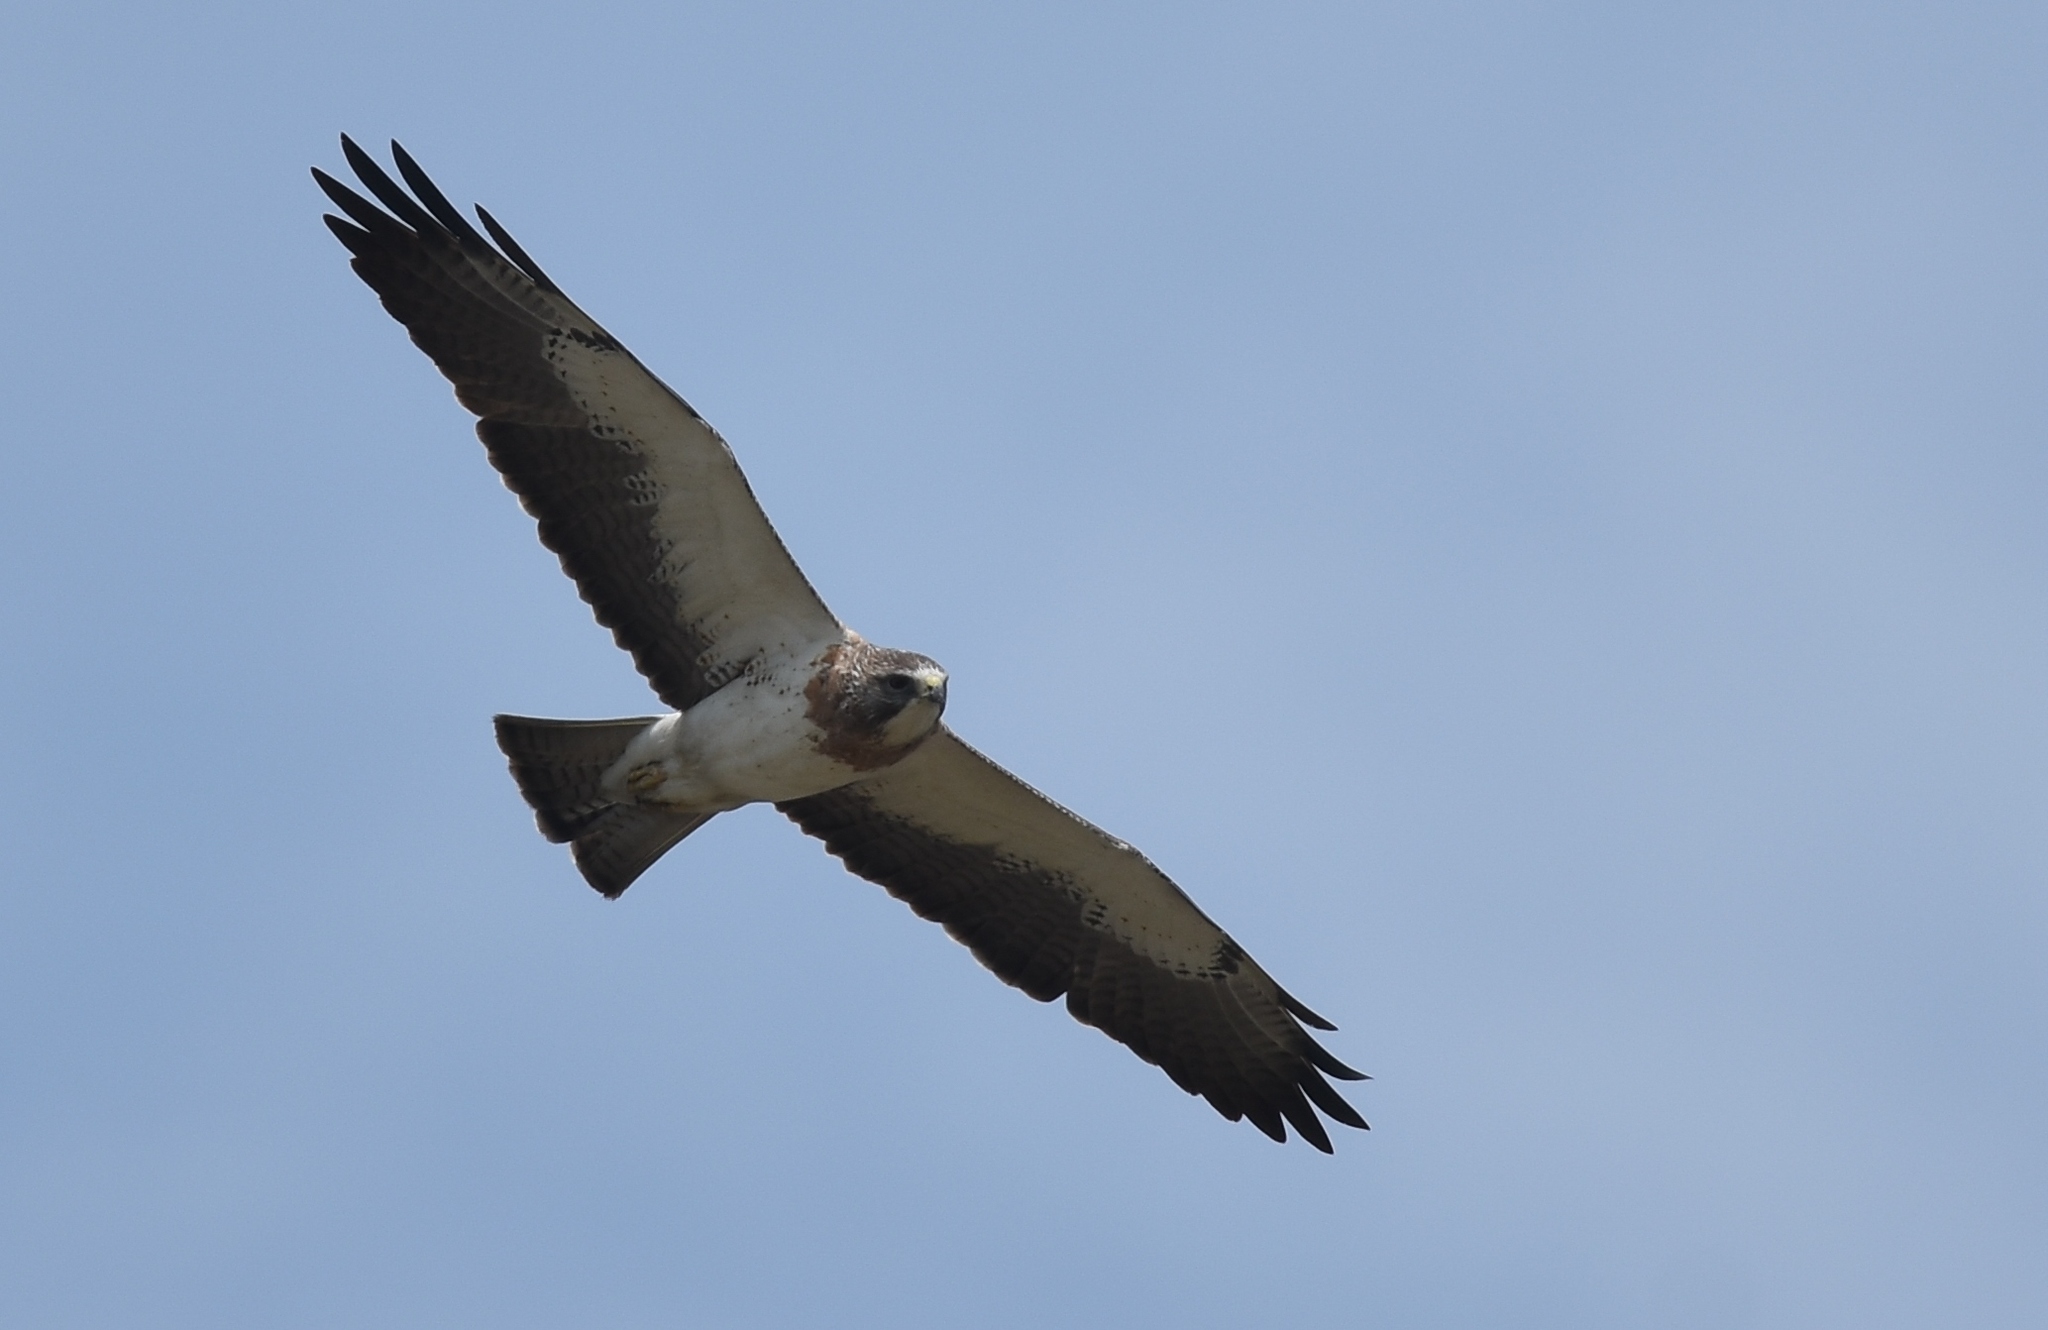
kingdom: Animalia
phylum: Chordata
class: Aves
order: Accipitriformes
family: Accipitridae
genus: Buteo
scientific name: Buteo swainsoni
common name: Swainson's hawk
